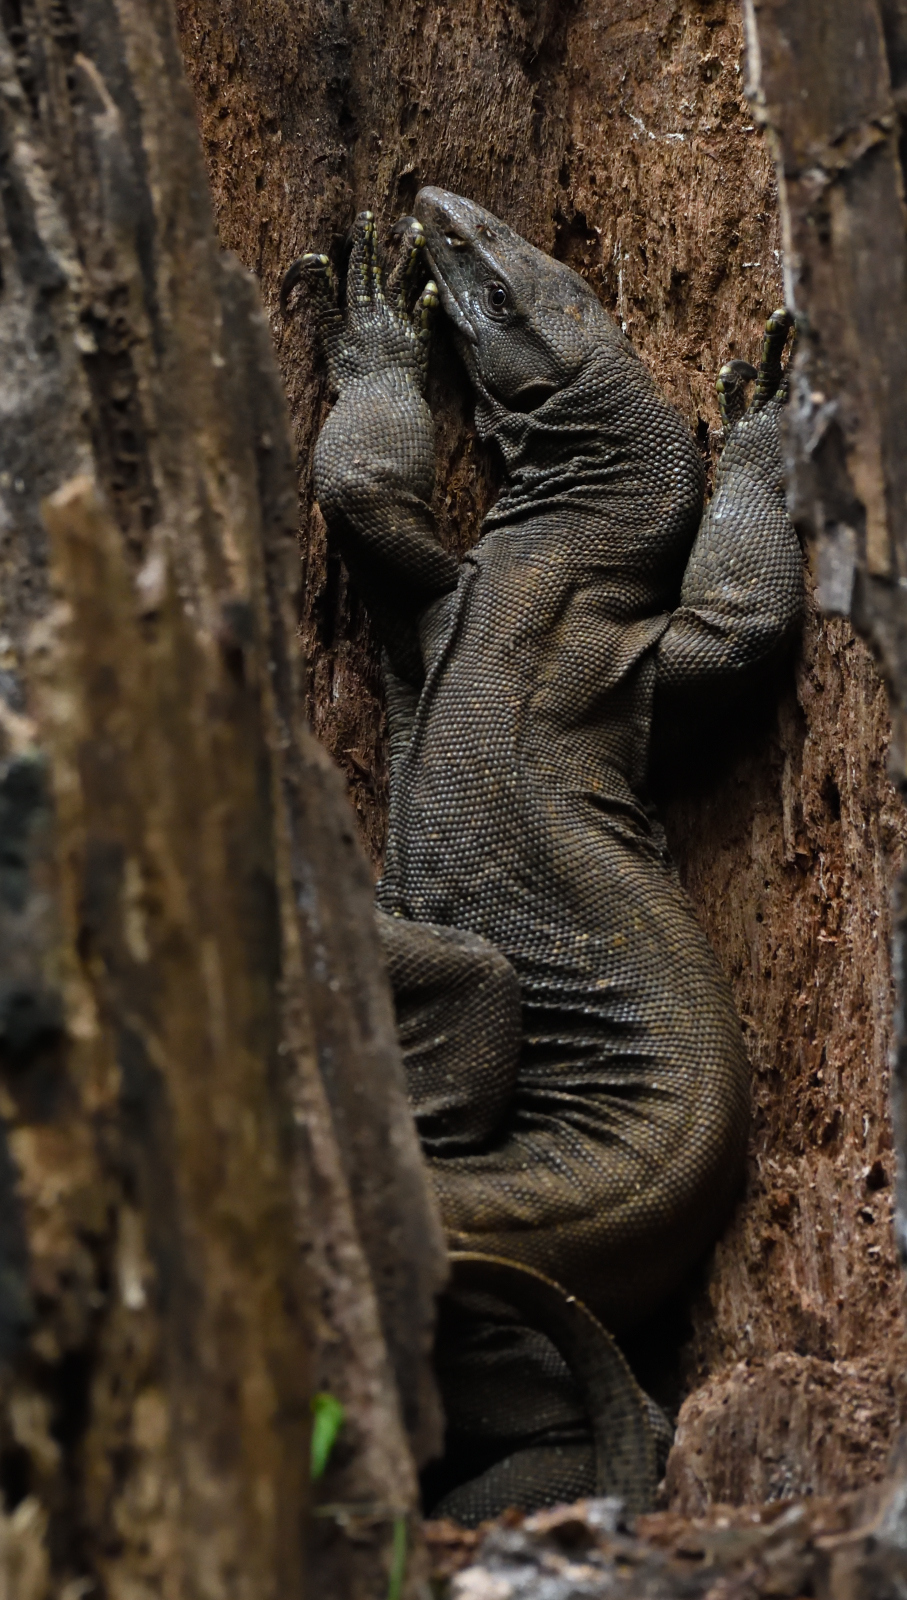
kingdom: Animalia
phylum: Chordata
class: Squamata
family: Varanidae
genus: Varanus
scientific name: Varanus bengalensis
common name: Bengal monitor
